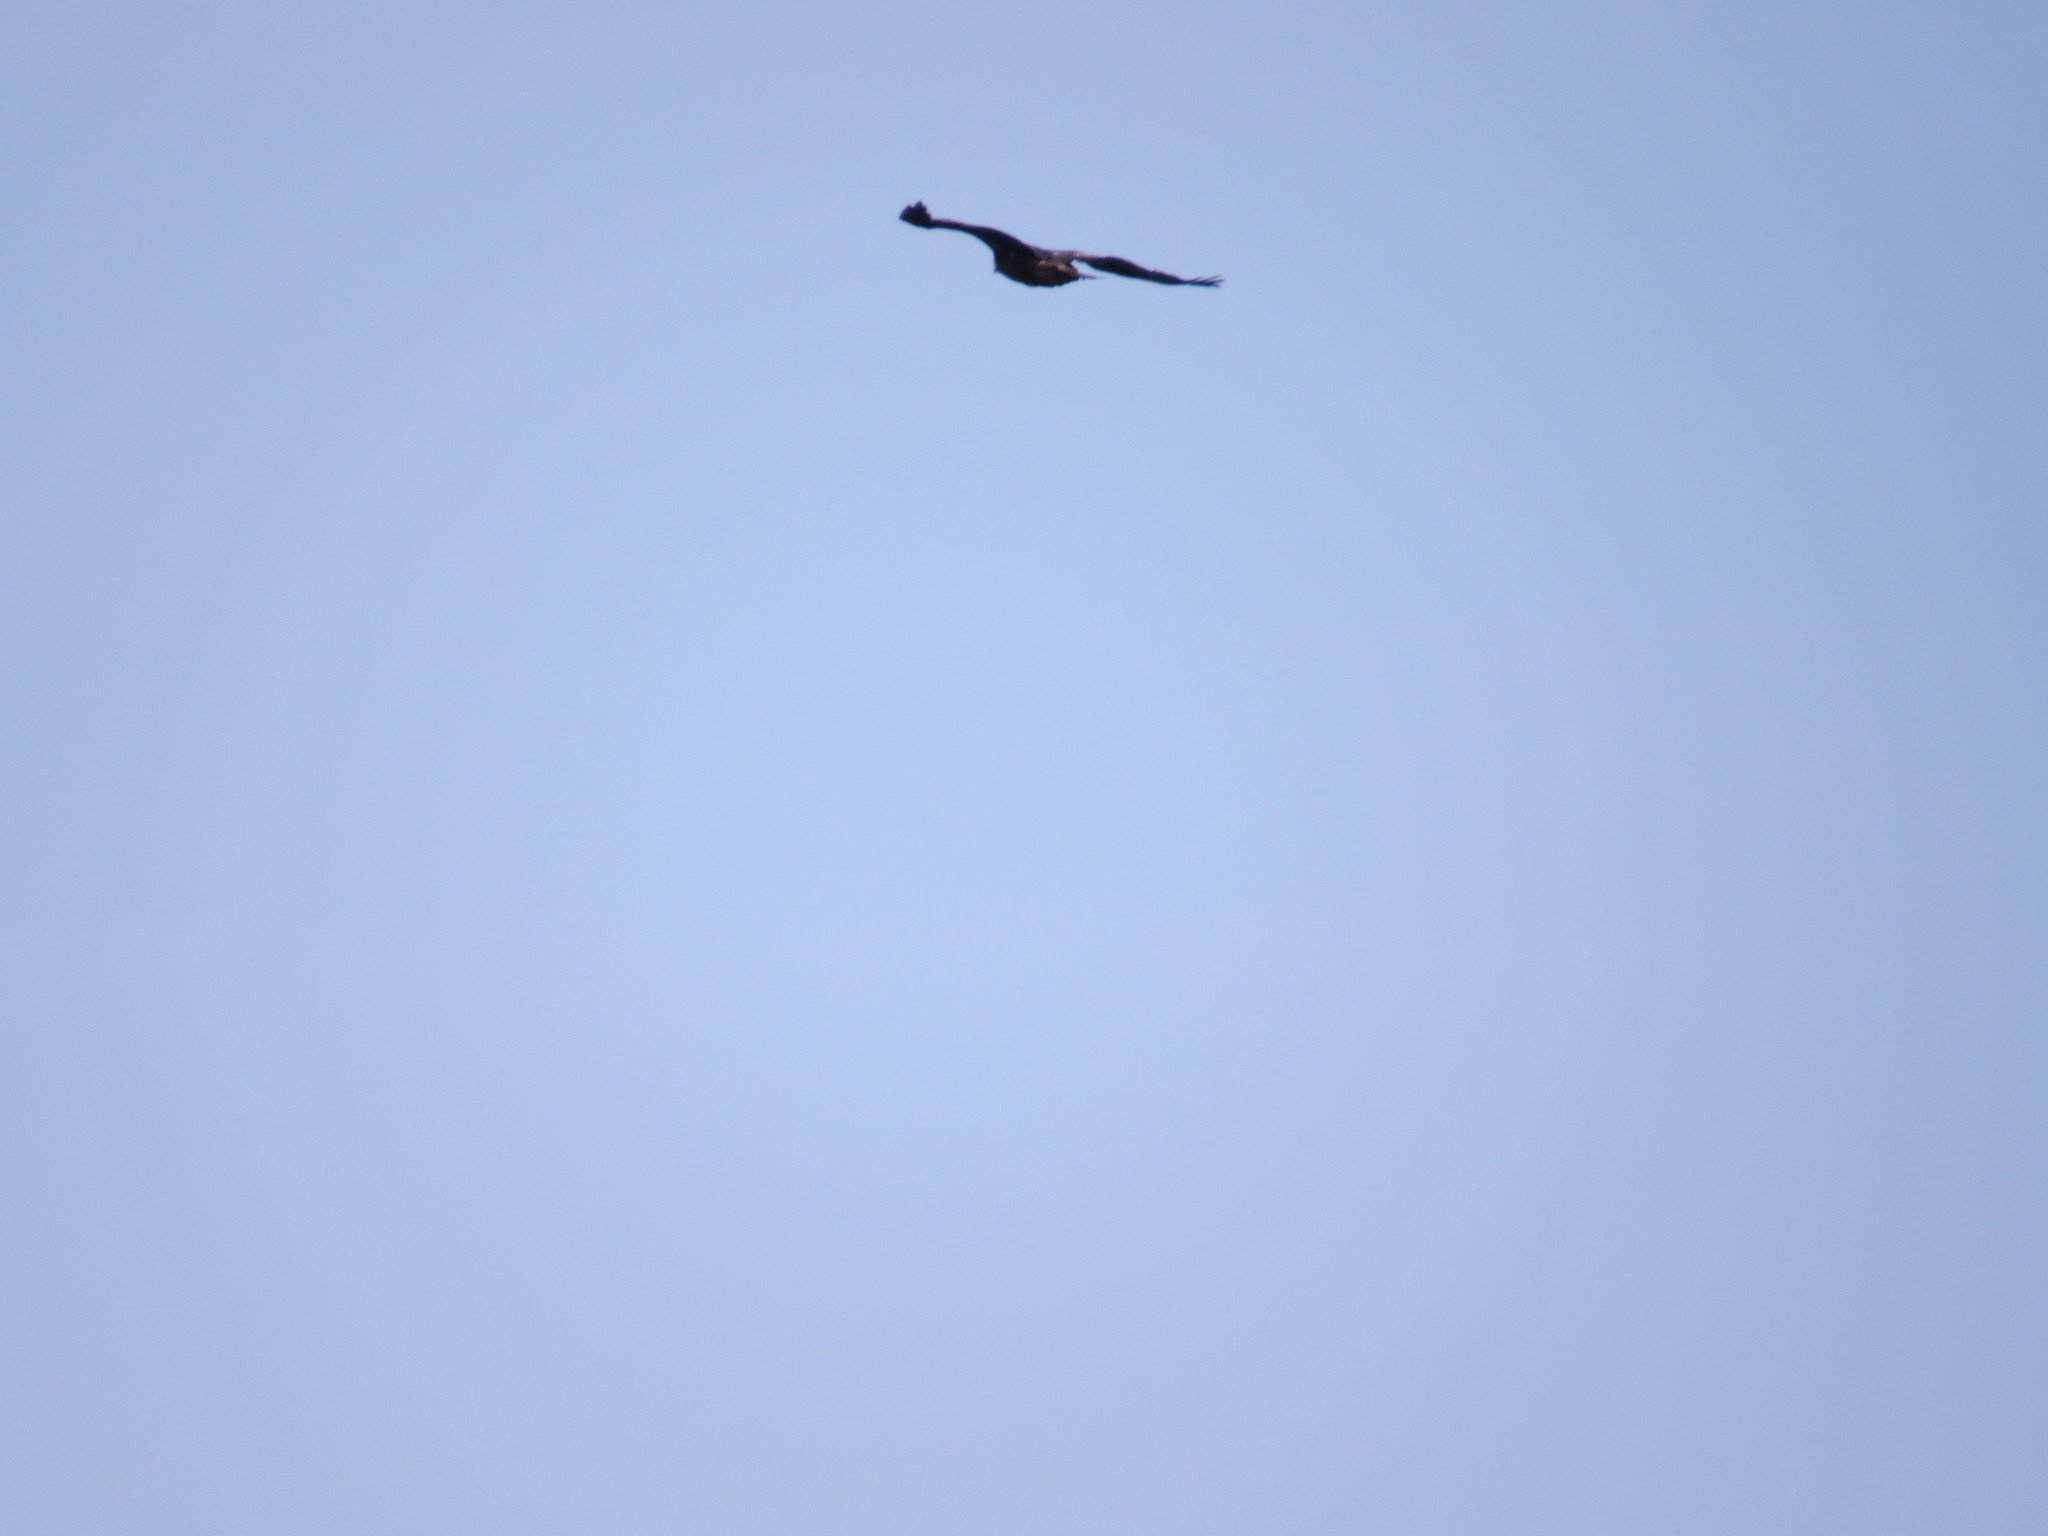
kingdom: Animalia
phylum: Chordata
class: Aves
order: Accipitriformes
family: Accipitridae
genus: Aquila
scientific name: Aquila chrysaetos
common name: Golden eagle
